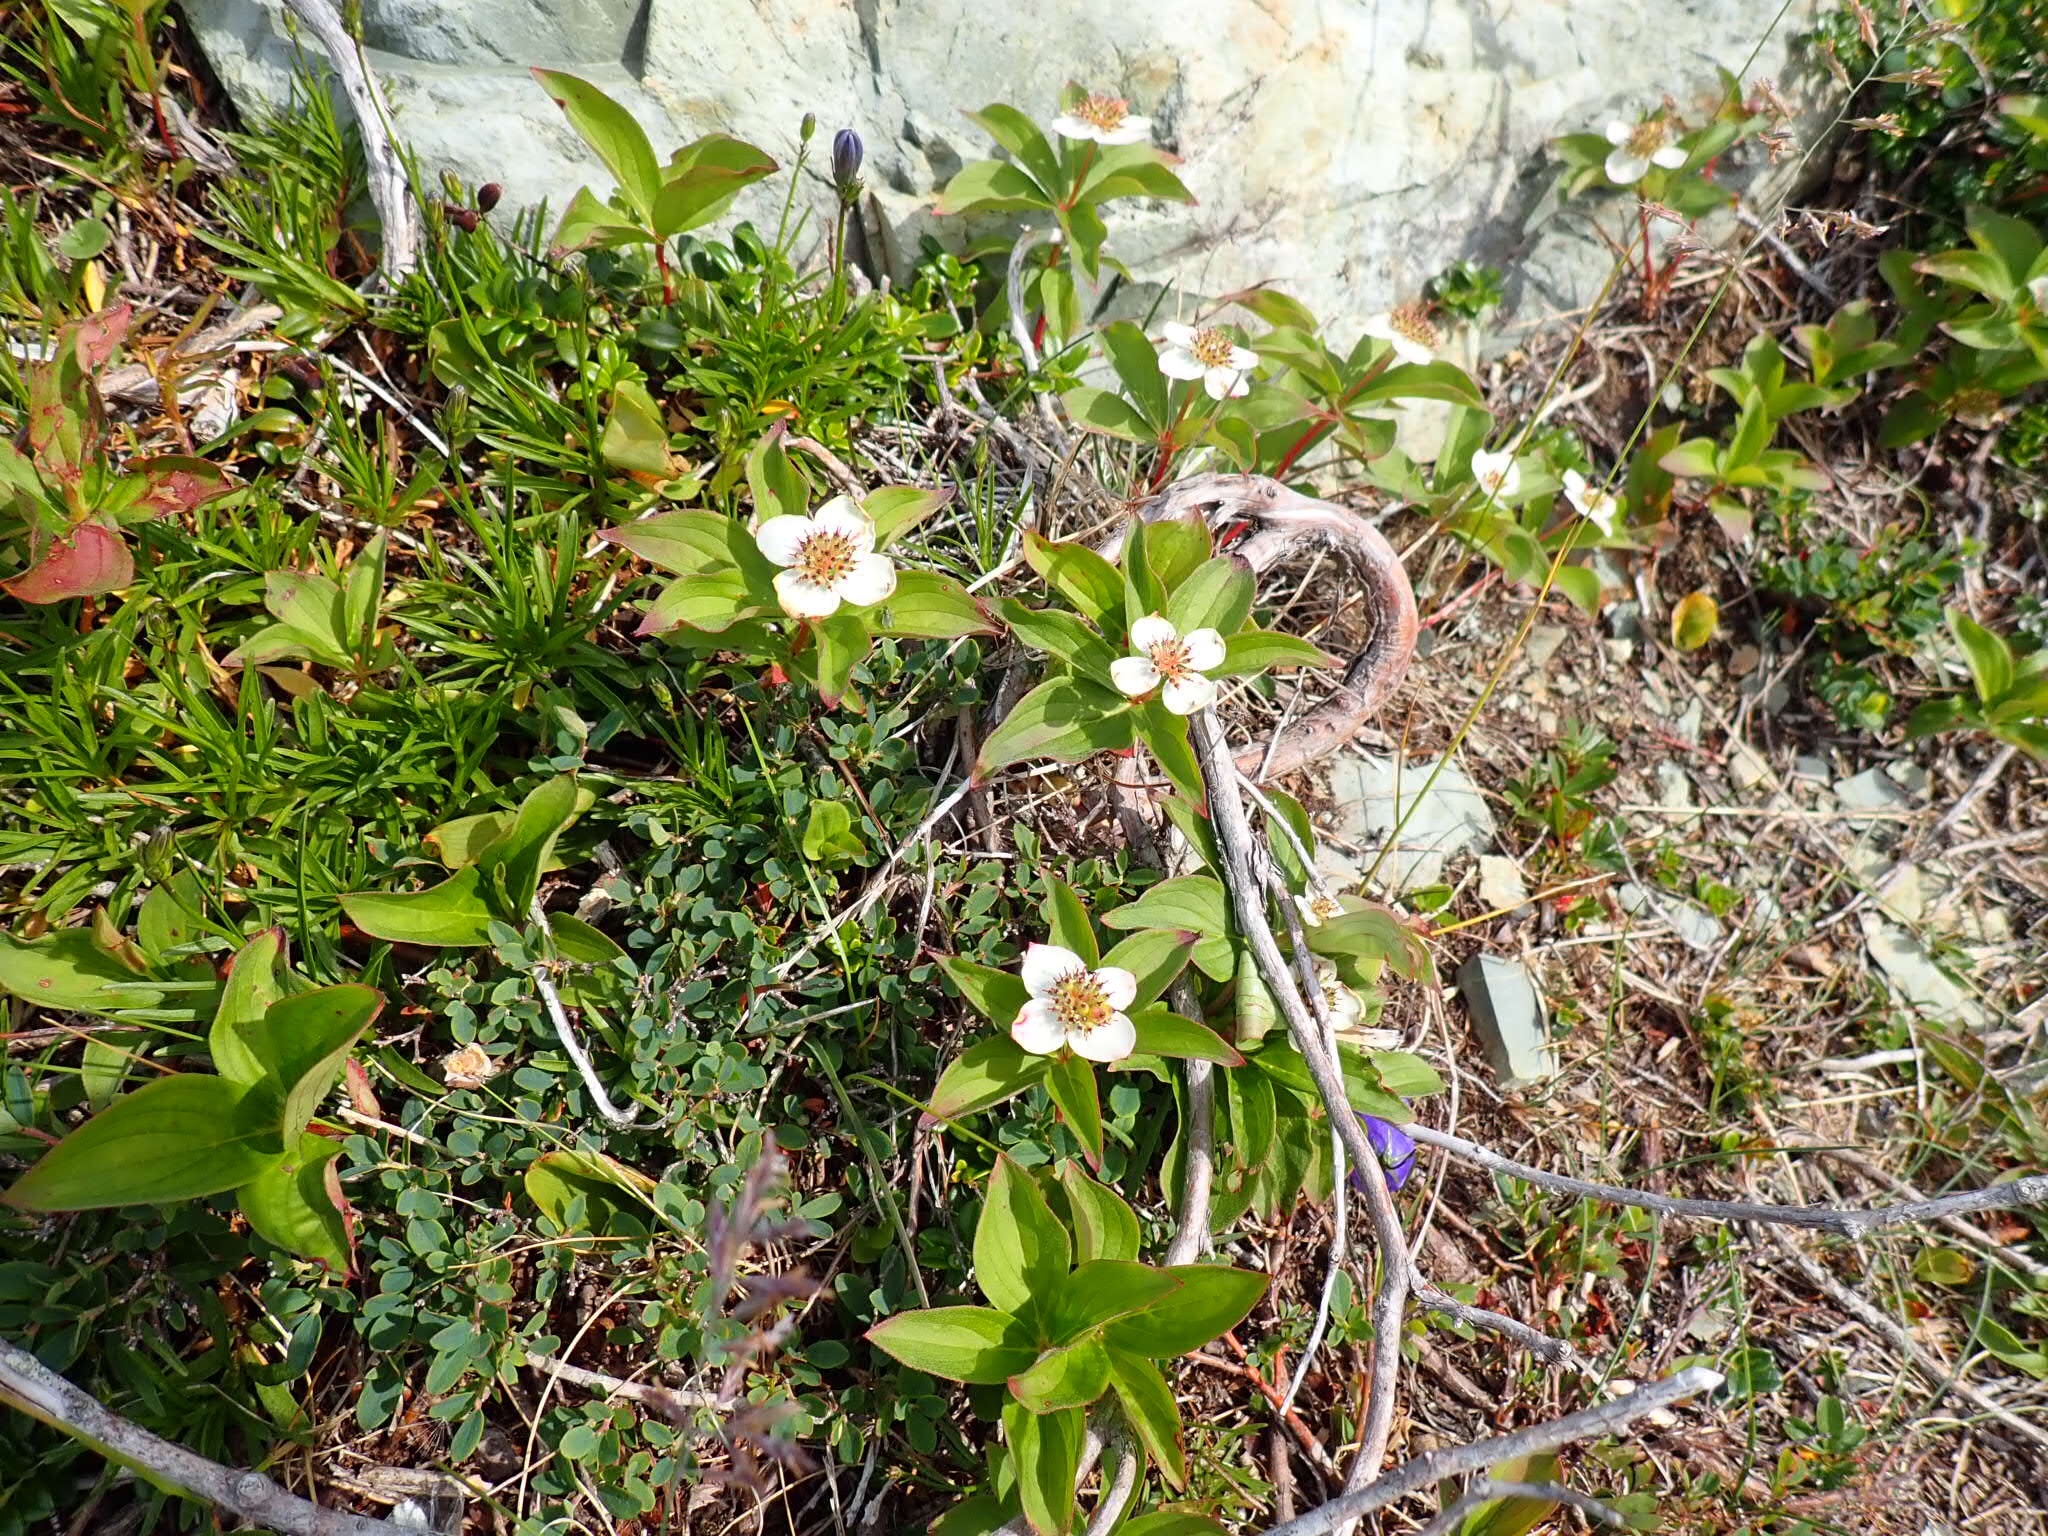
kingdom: Plantae
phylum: Tracheophyta
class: Magnoliopsida
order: Cornales
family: Cornaceae
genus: Cornus
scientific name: Cornus canadensis
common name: Creeping dogwood
